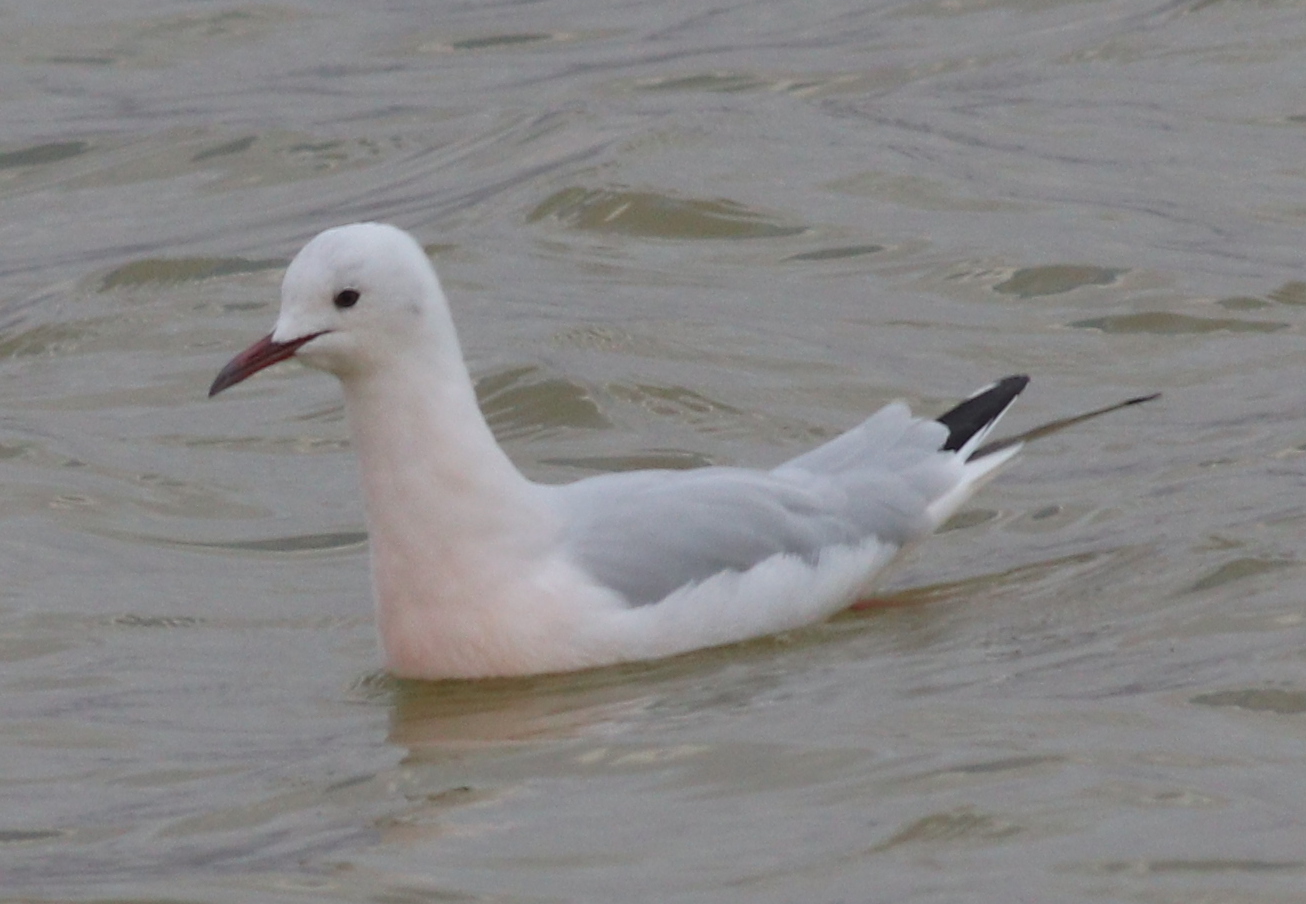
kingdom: Animalia
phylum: Chordata
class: Aves
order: Charadriiformes
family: Laridae
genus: Chroicocephalus
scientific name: Chroicocephalus genei
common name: Slender-billed gull
